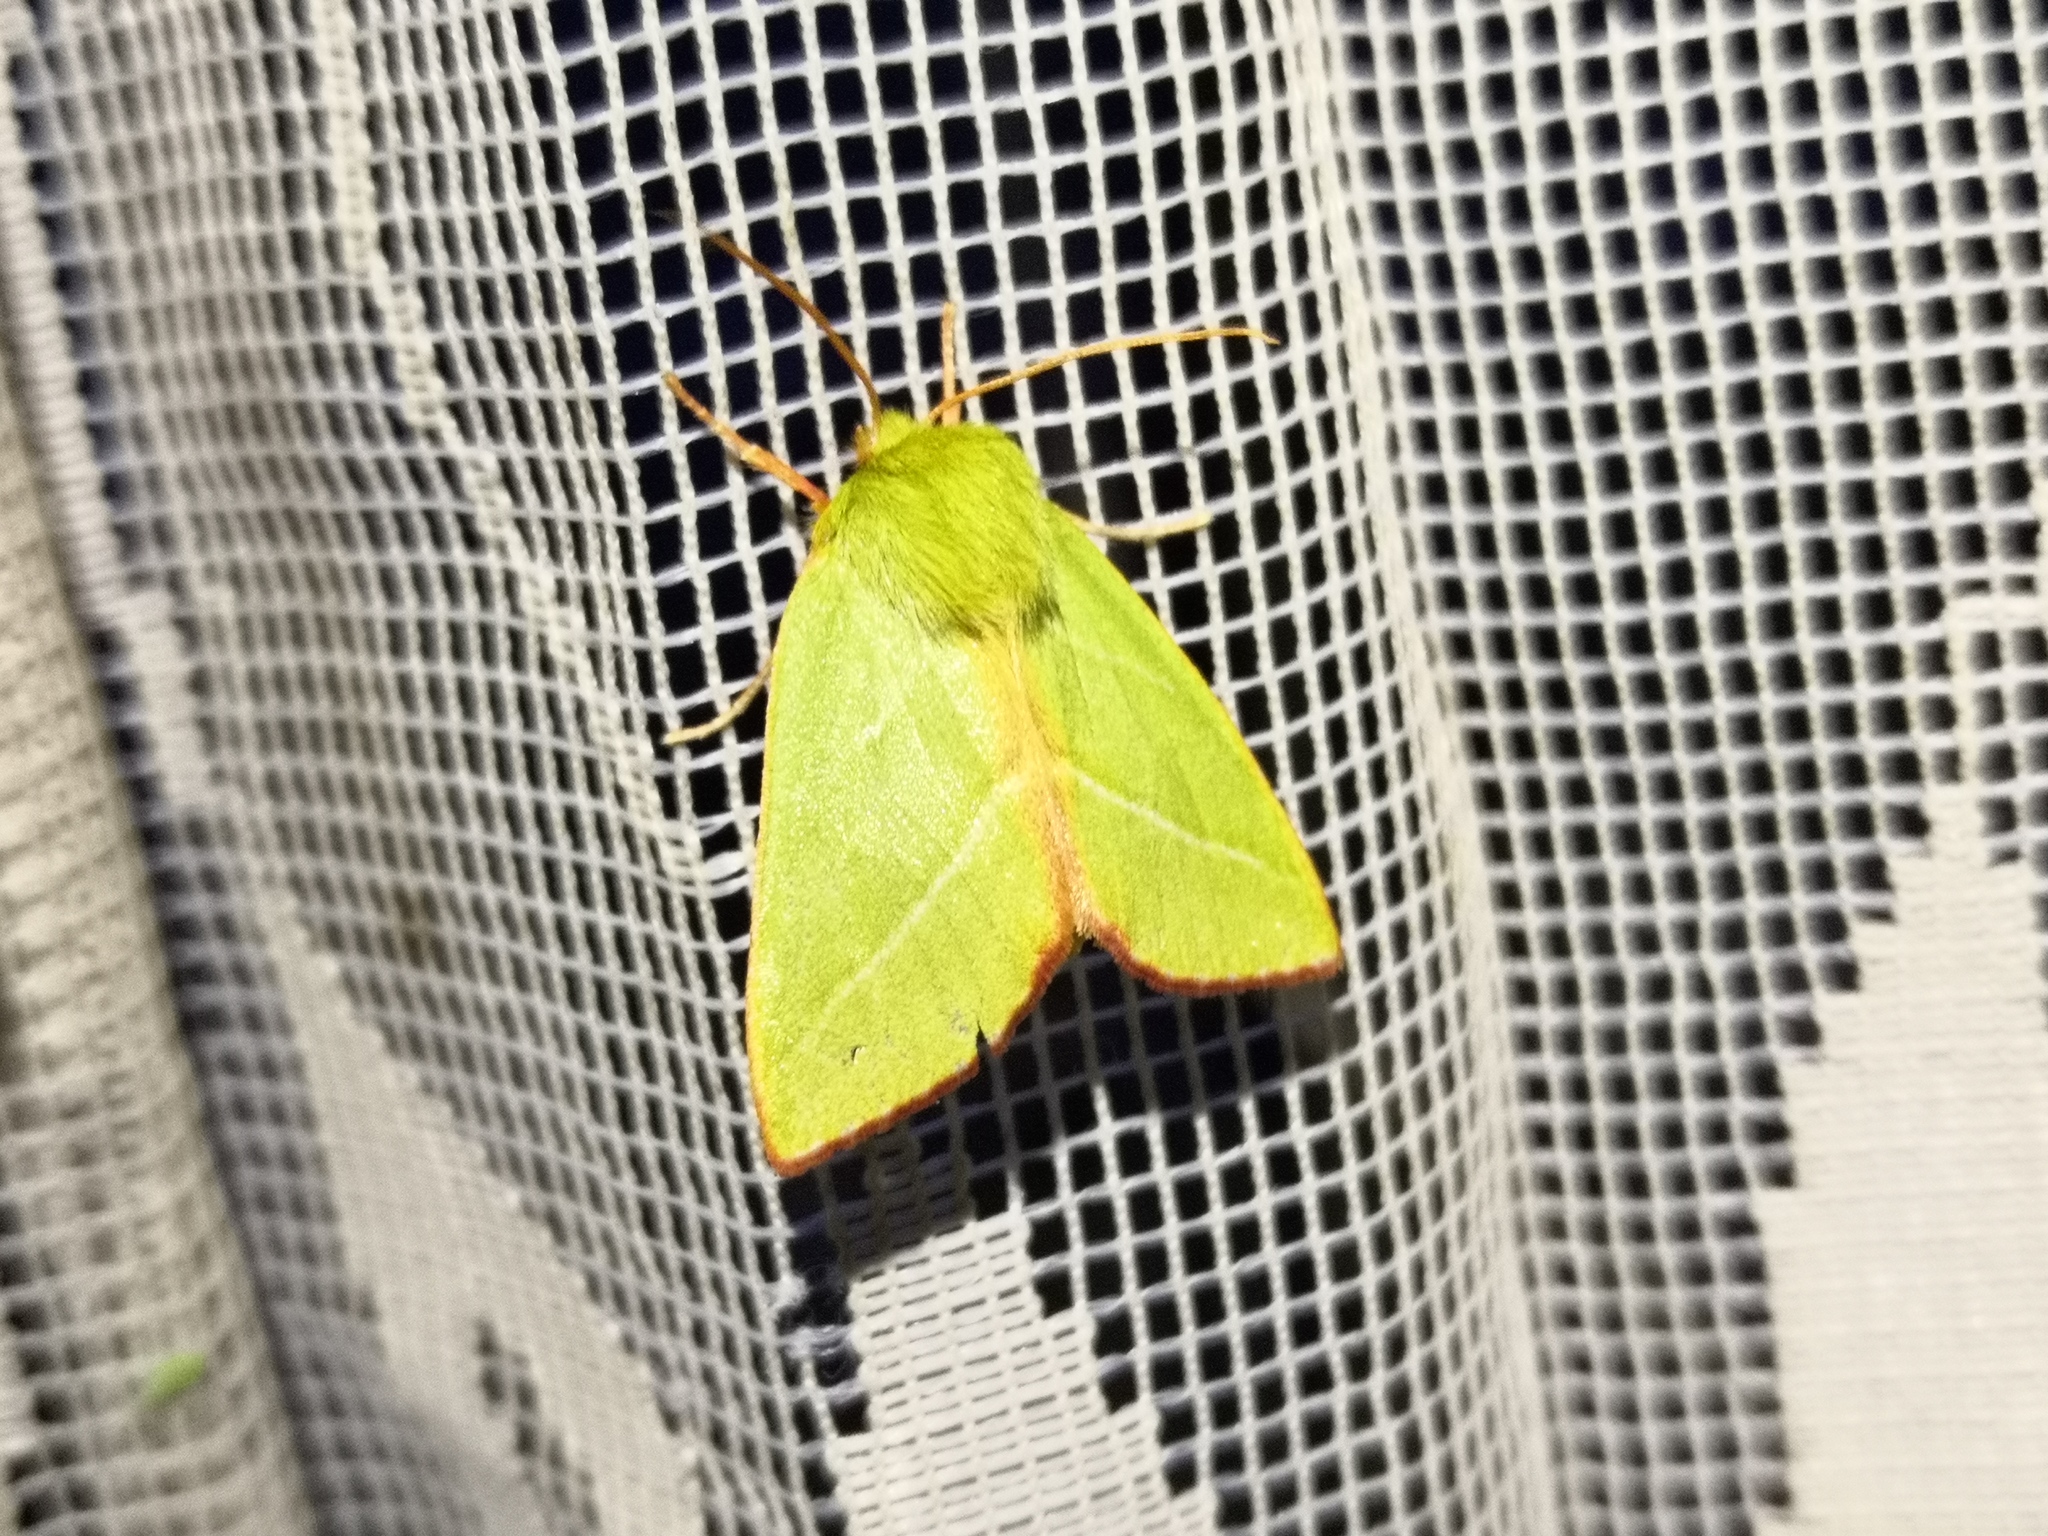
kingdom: Animalia
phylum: Arthropoda
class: Insecta
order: Lepidoptera
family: Nolidae
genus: Pseudoips
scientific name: Pseudoips prasinana
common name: Green silver-lines
